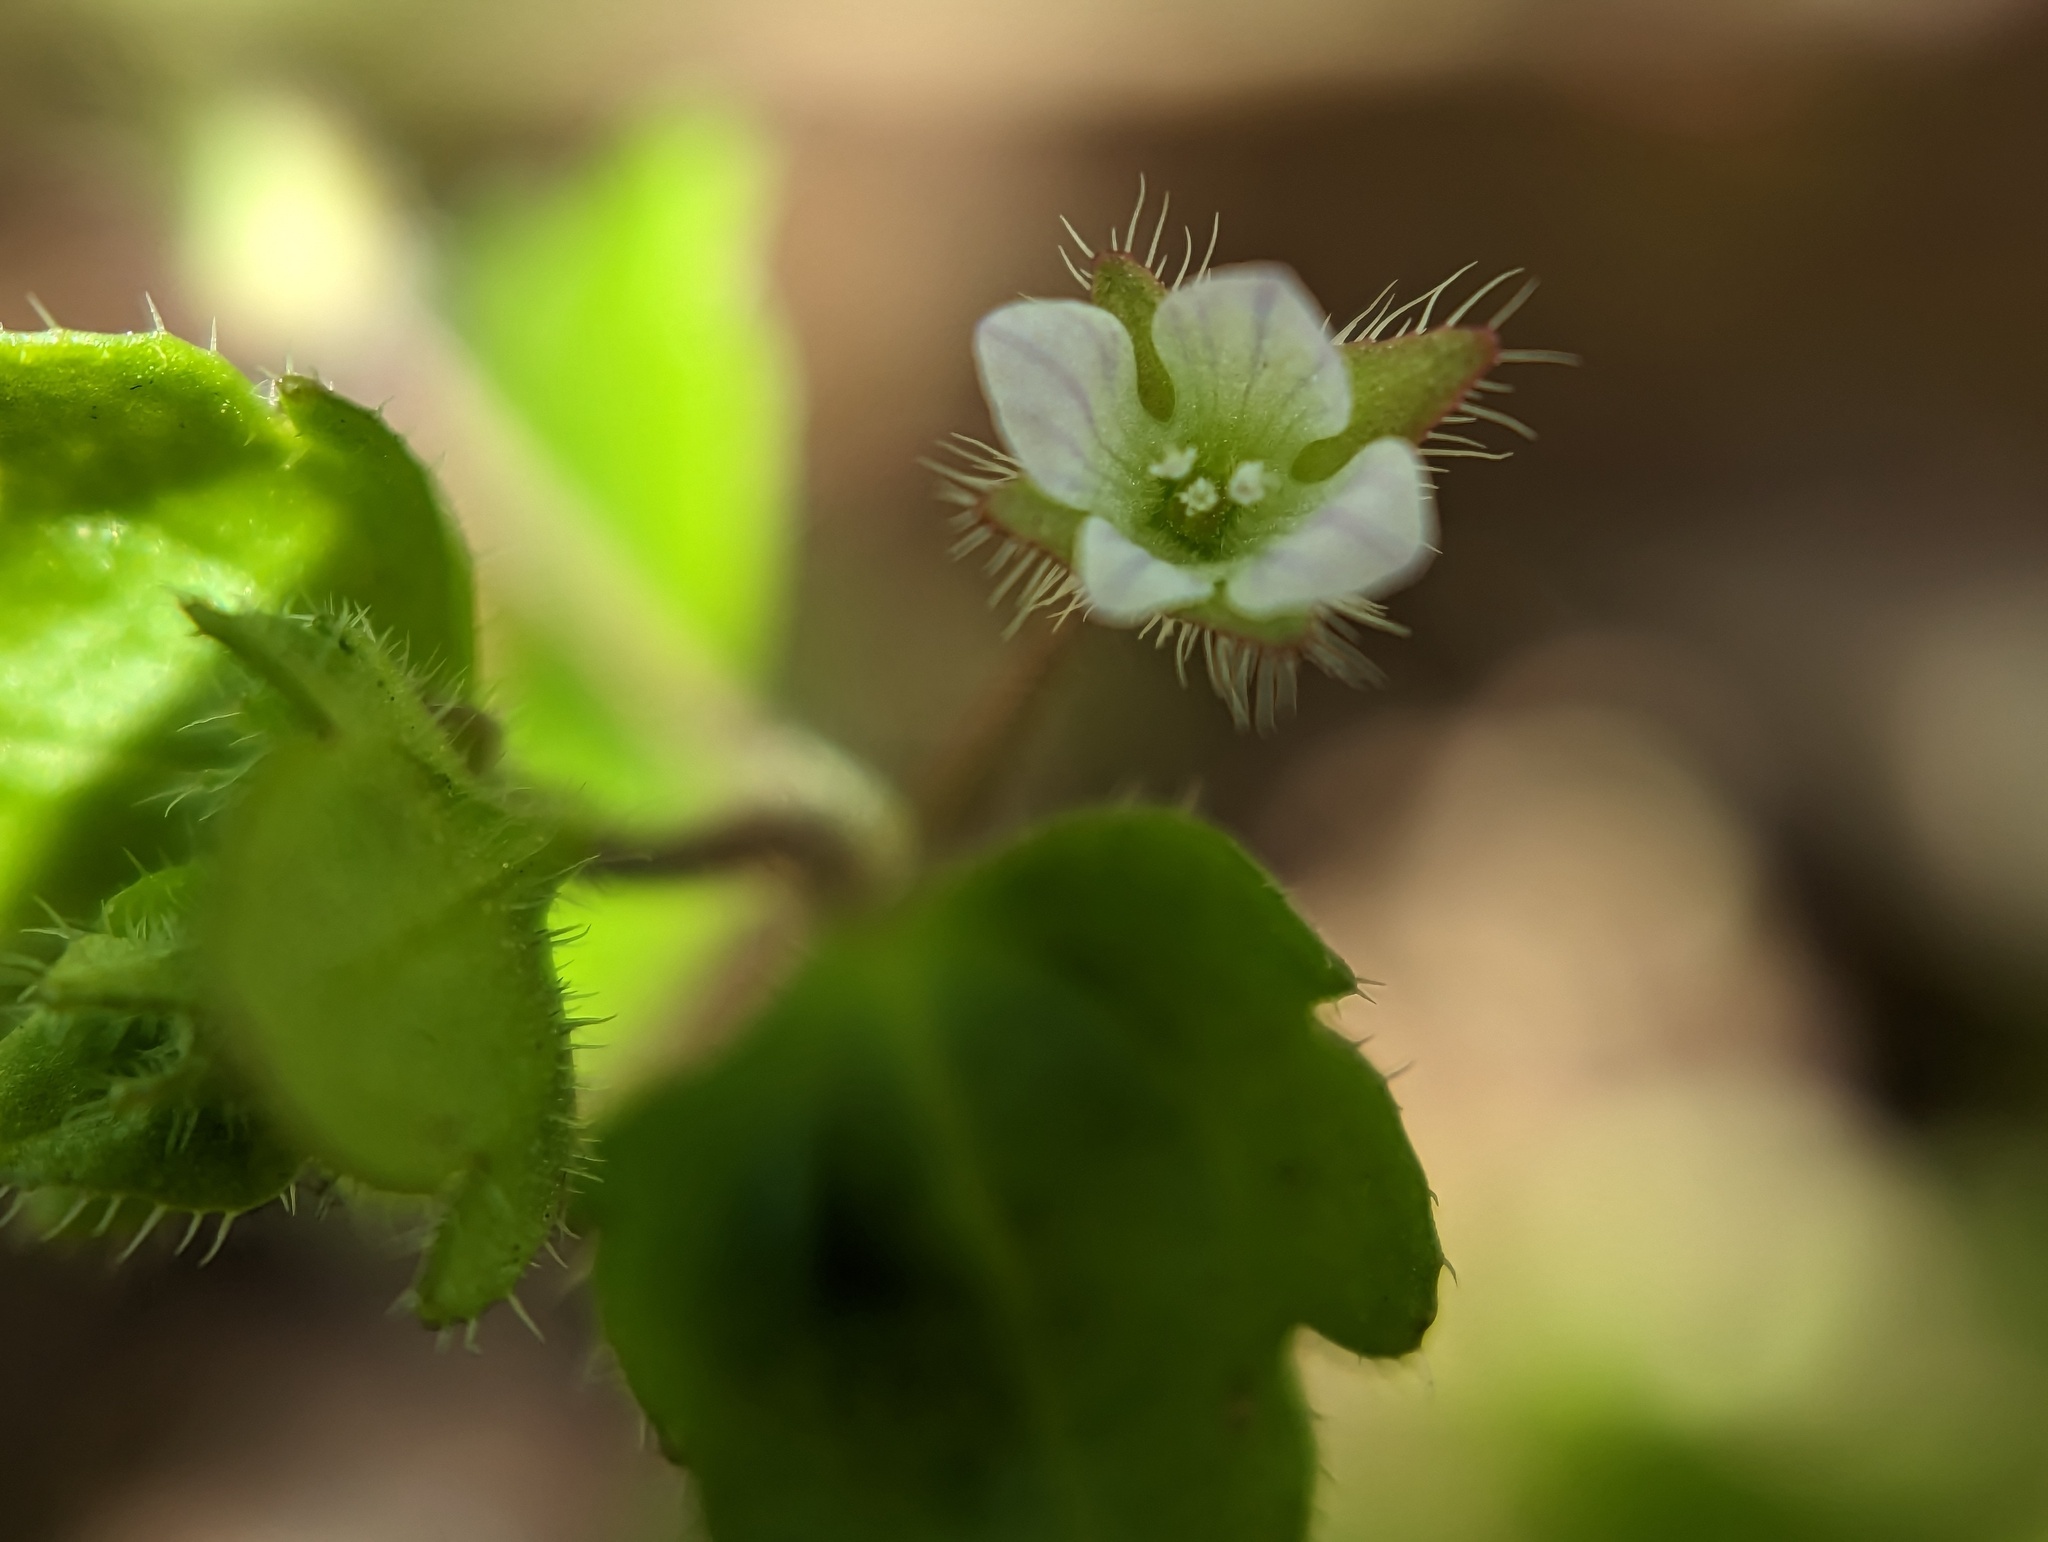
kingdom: Plantae
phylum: Tracheophyta
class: Magnoliopsida
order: Lamiales
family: Plantaginaceae
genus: Veronica
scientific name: Veronica sublobata
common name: False ivy-leaved speedwell
